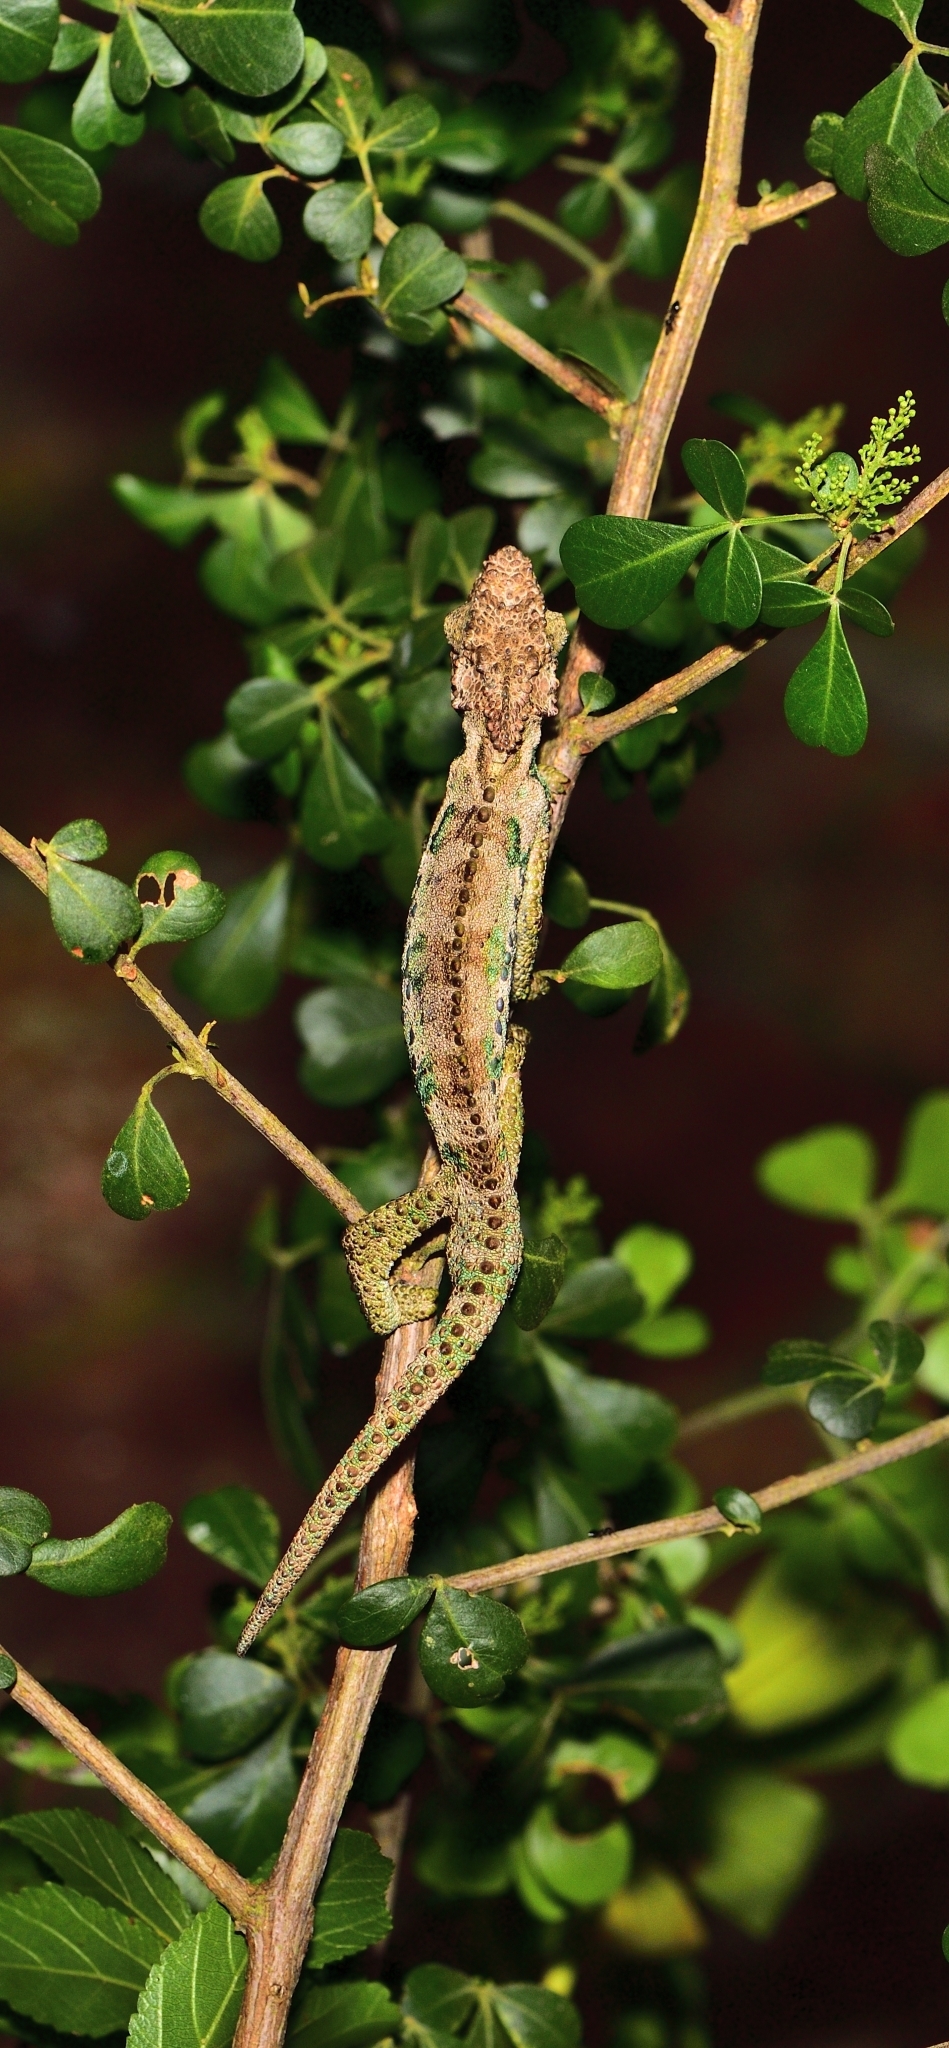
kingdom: Animalia
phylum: Chordata
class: Squamata
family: Chamaeleonidae
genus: Bradypodion
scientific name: Bradypodion ventrale
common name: Eastern cape dwarf chameleon
